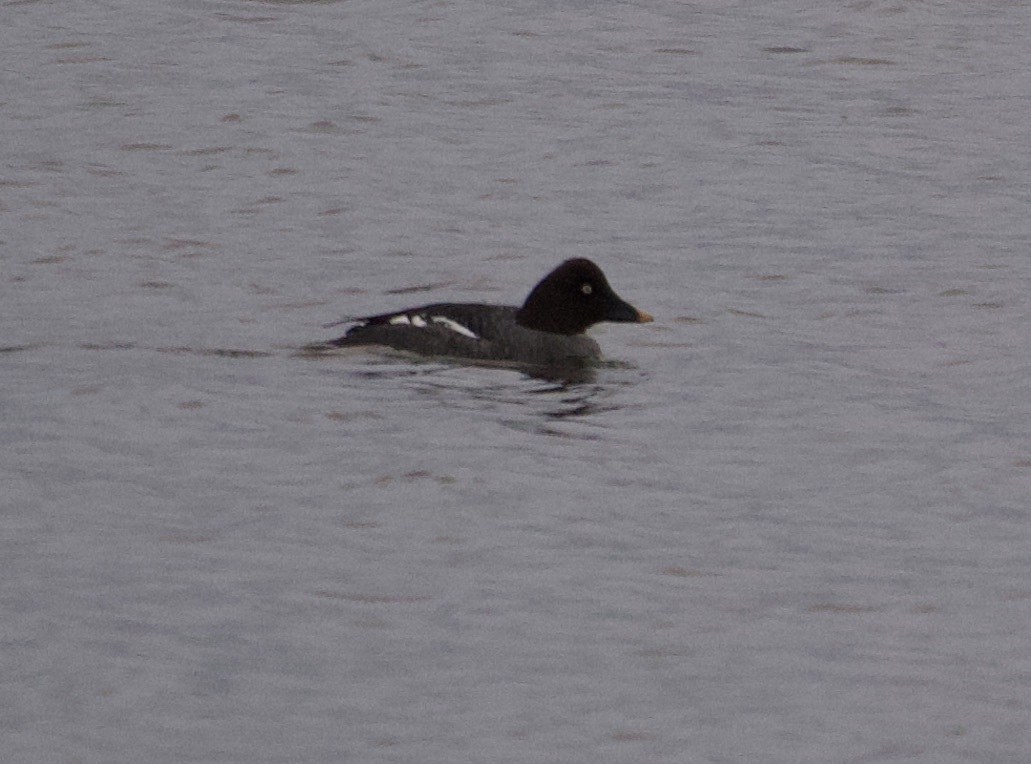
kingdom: Animalia
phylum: Chordata
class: Aves
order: Anseriformes
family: Anatidae
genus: Bucephala
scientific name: Bucephala clangula
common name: Common goldeneye
